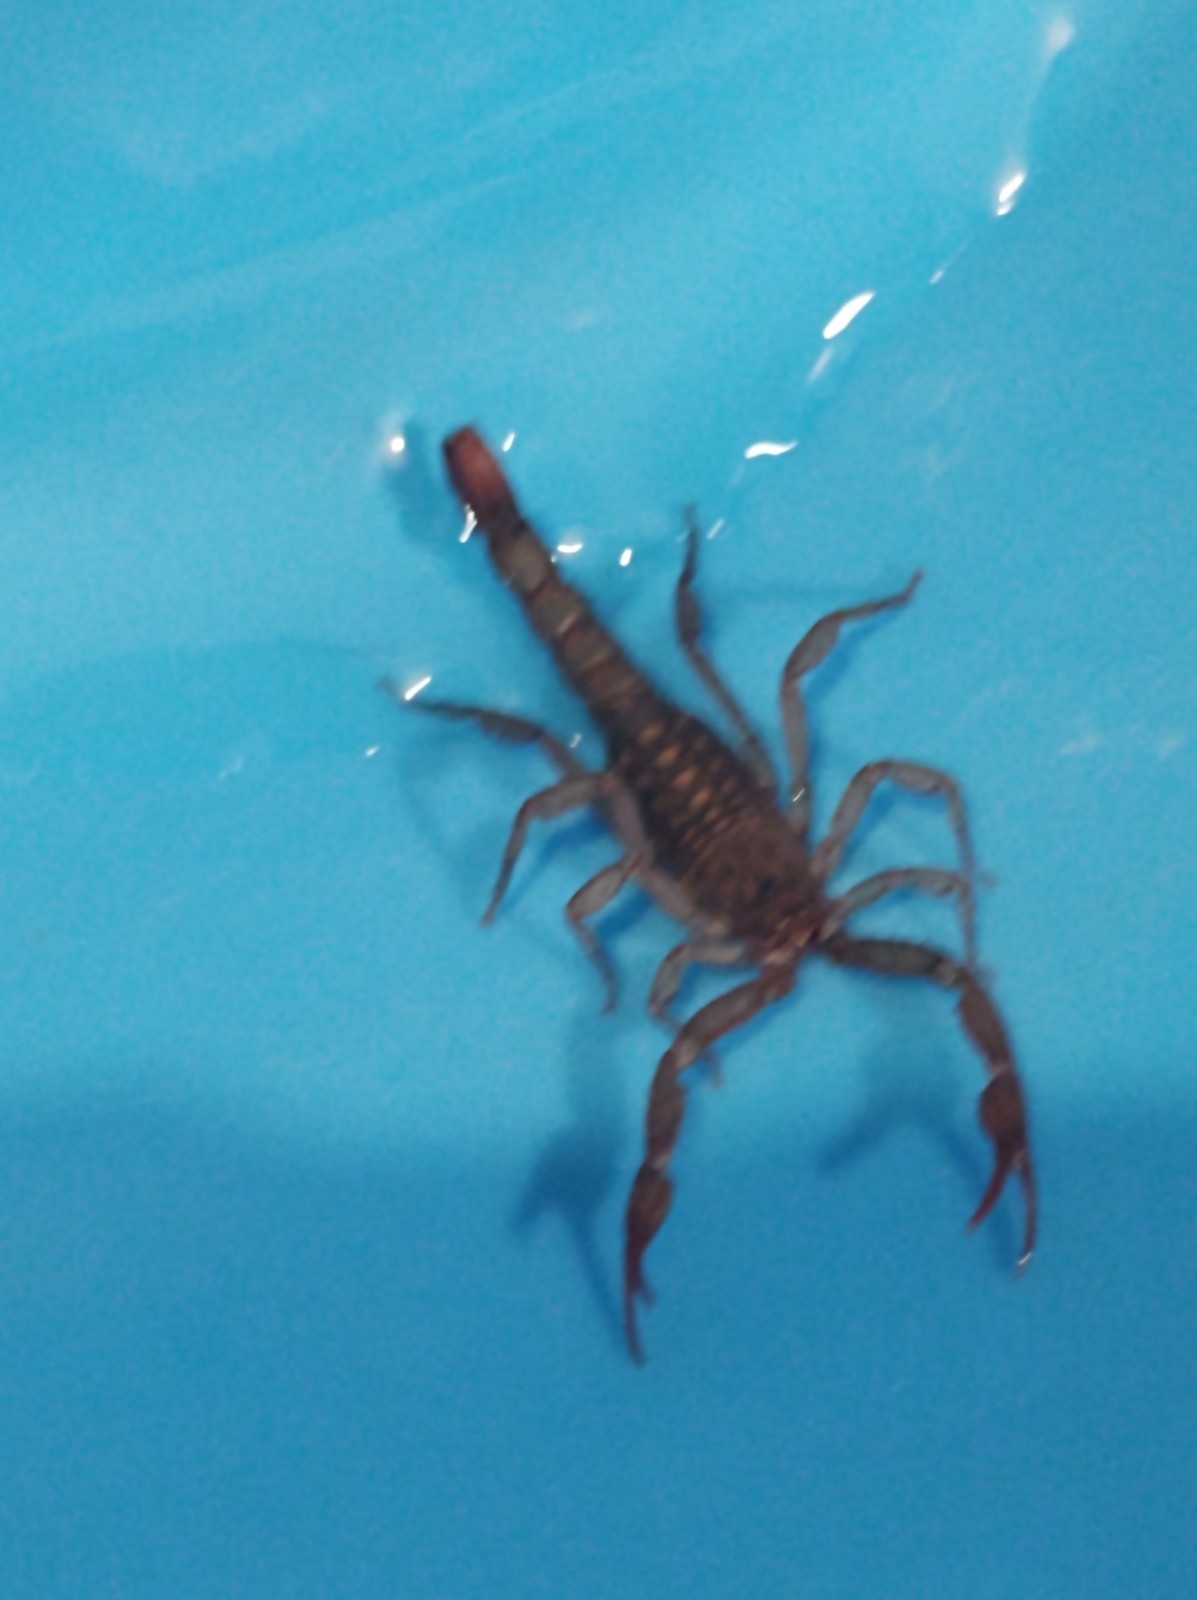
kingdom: Animalia
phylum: Arthropoda
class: Arachnida
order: Scorpiones
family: Vaejovidae
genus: Vaejovis
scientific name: Vaejovis mexicanus
